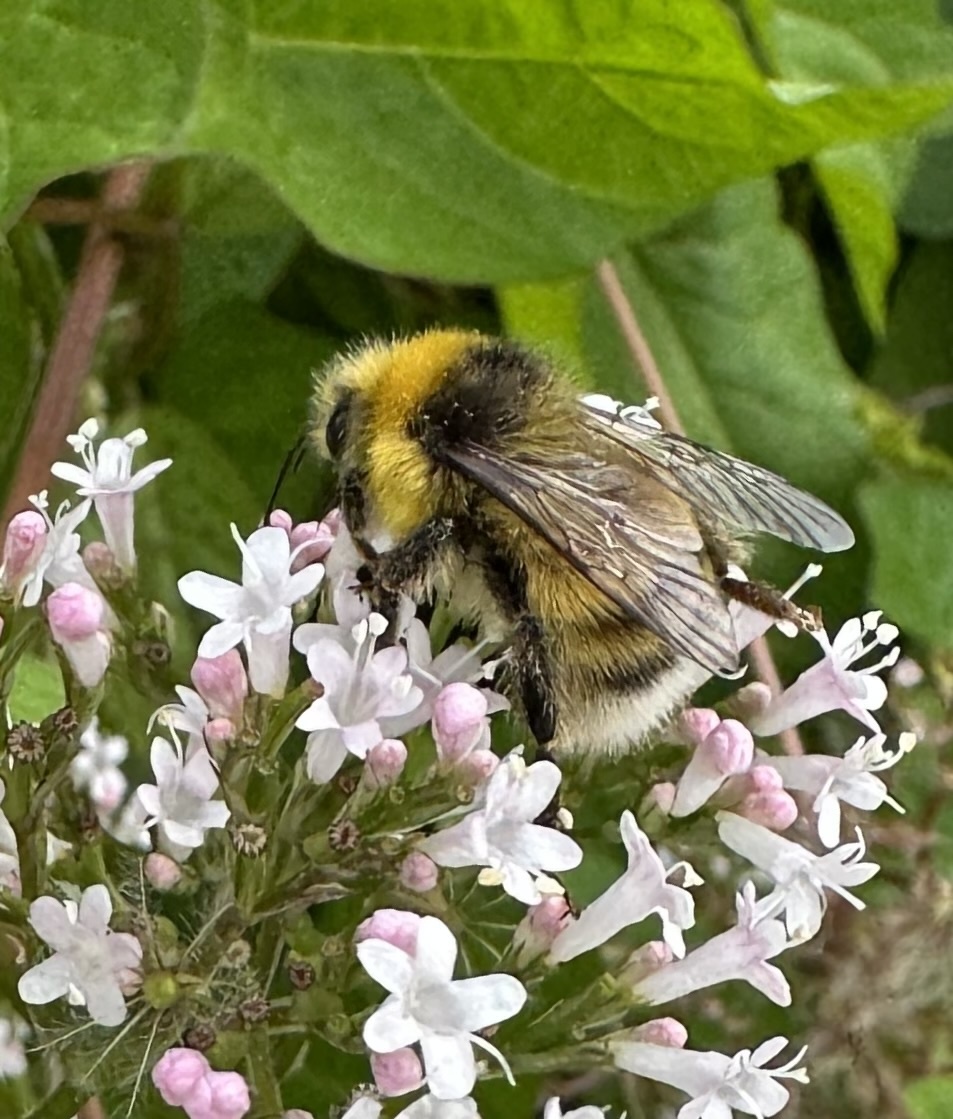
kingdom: Animalia
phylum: Arthropoda
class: Insecta
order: Hymenoptera
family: Apidae
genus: Bombus
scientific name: Bombus lucorum
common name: White-tailed bumblebee
